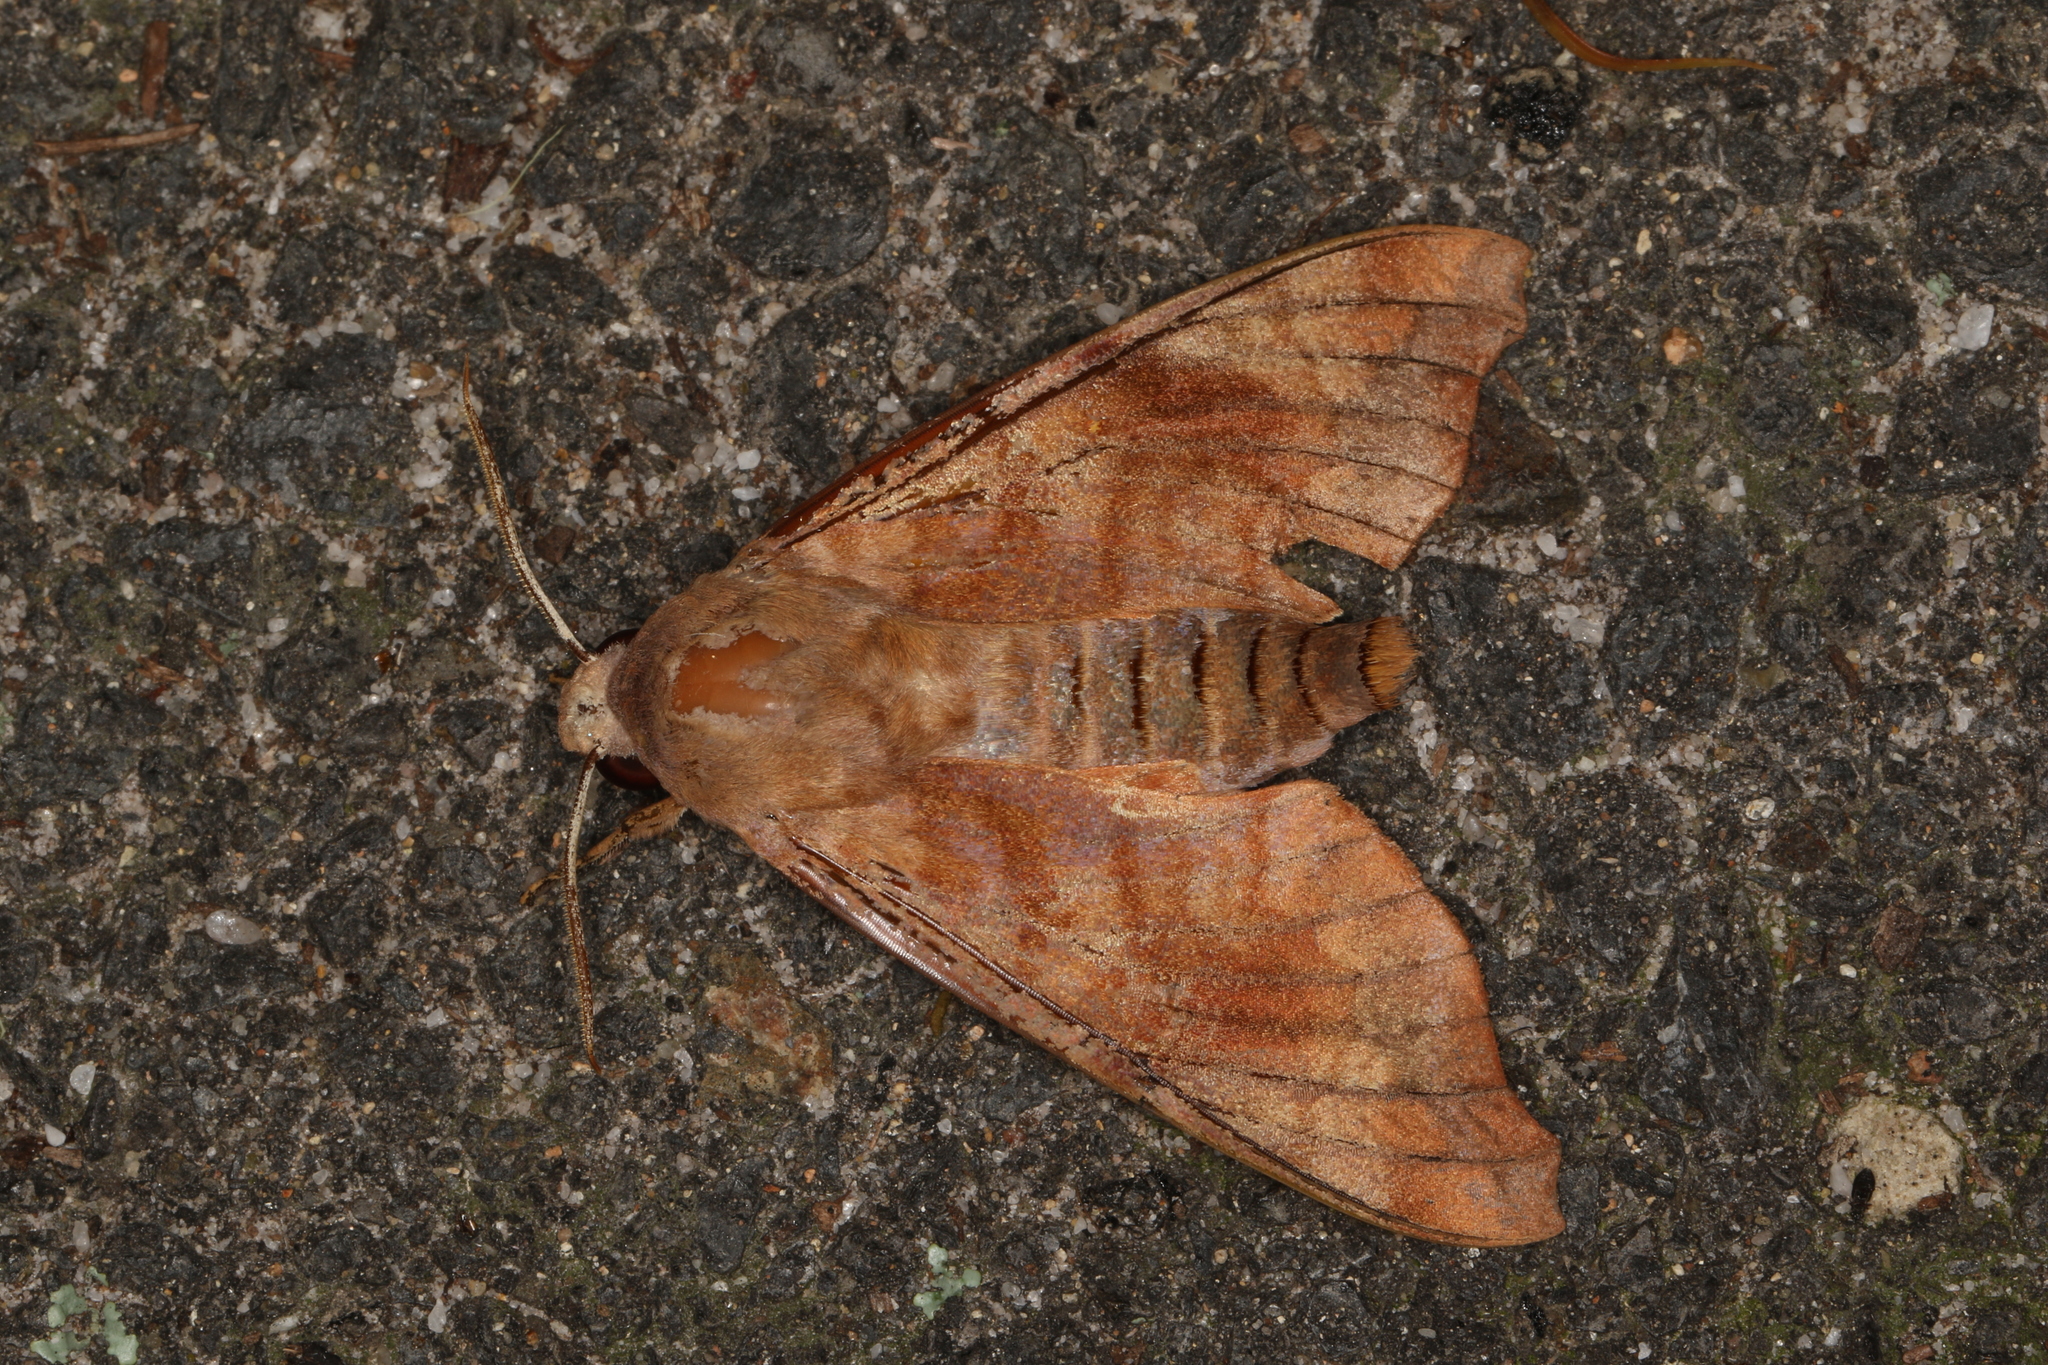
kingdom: Animalia
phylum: Arthropoda
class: Insecta
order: Lepidoptera
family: Sphingidae
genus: Acosmeryx
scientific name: Acosmeryx cinnamomea
